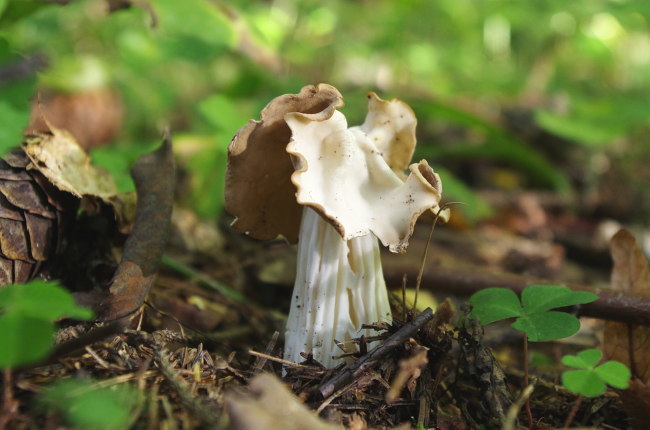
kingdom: Fungi
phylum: Ascomycota
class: Pezizomycetes
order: Pezizales
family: Helvellaceae
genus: Helvella
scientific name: Helvella crispa
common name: White saddle
